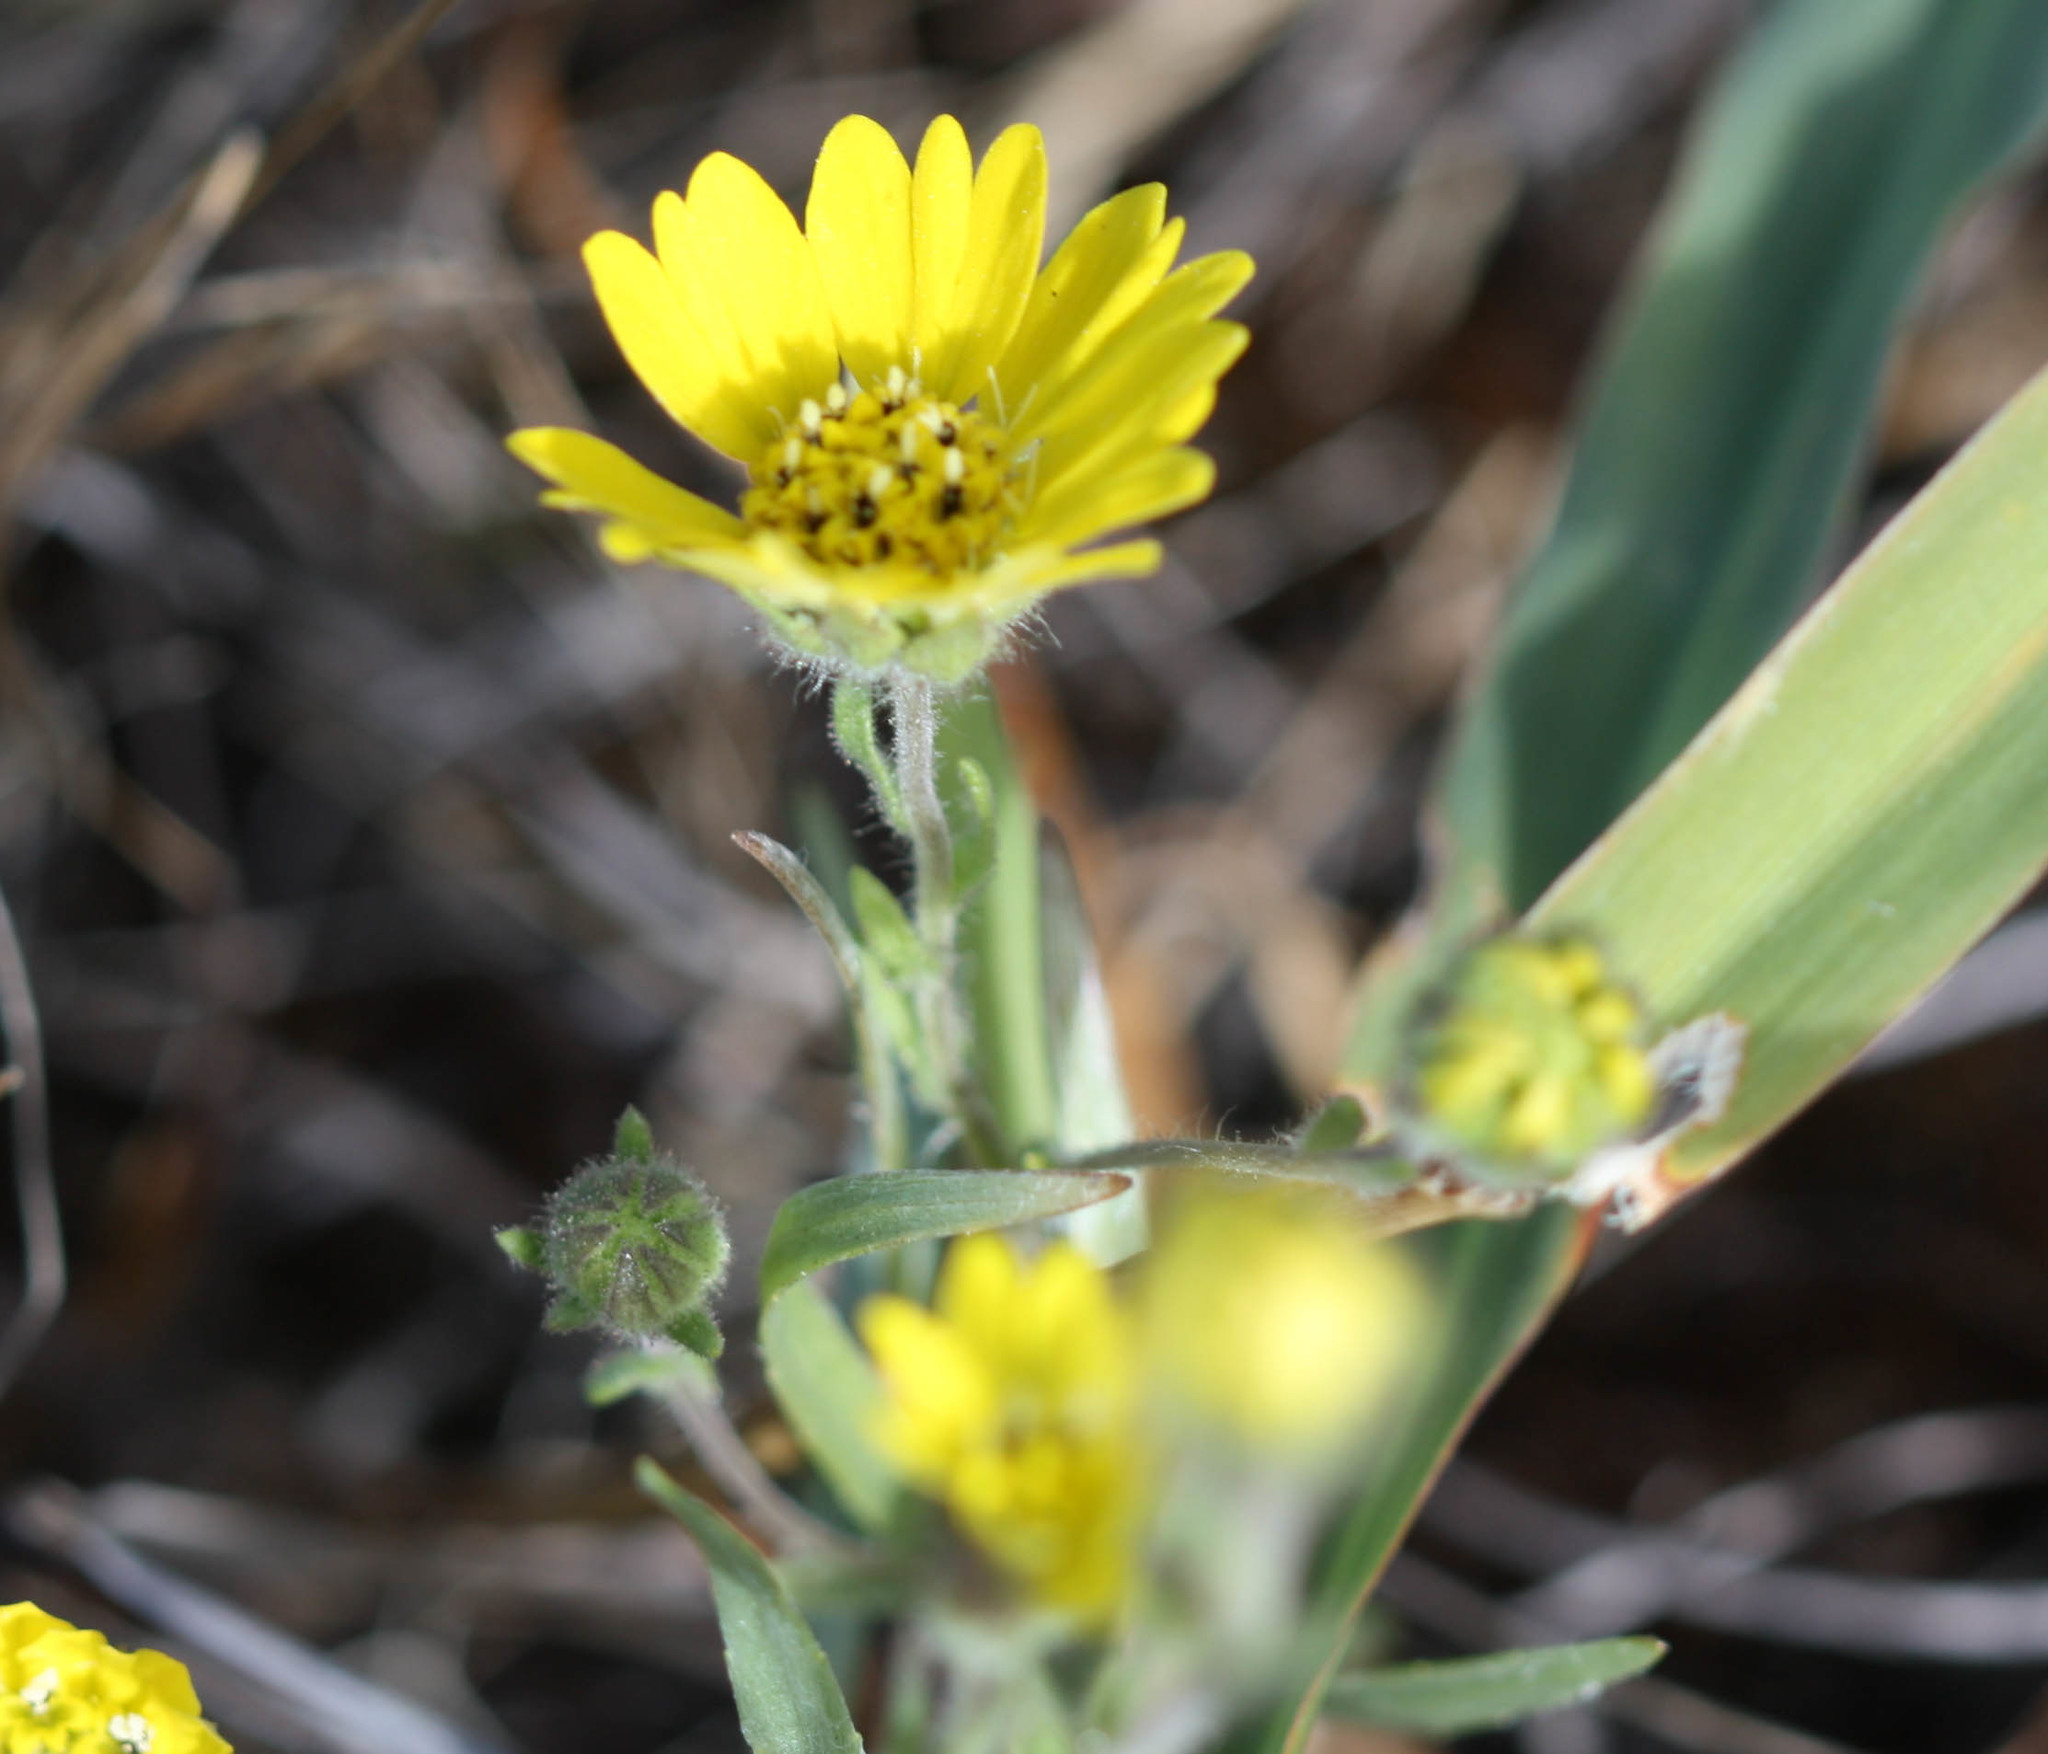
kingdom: Plantae
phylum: Tracheophyta
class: Magnoliopsida
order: Asterales
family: Asteraceae
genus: Hemizonia
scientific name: Hemizonia congesta
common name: Hayfield tarweed
